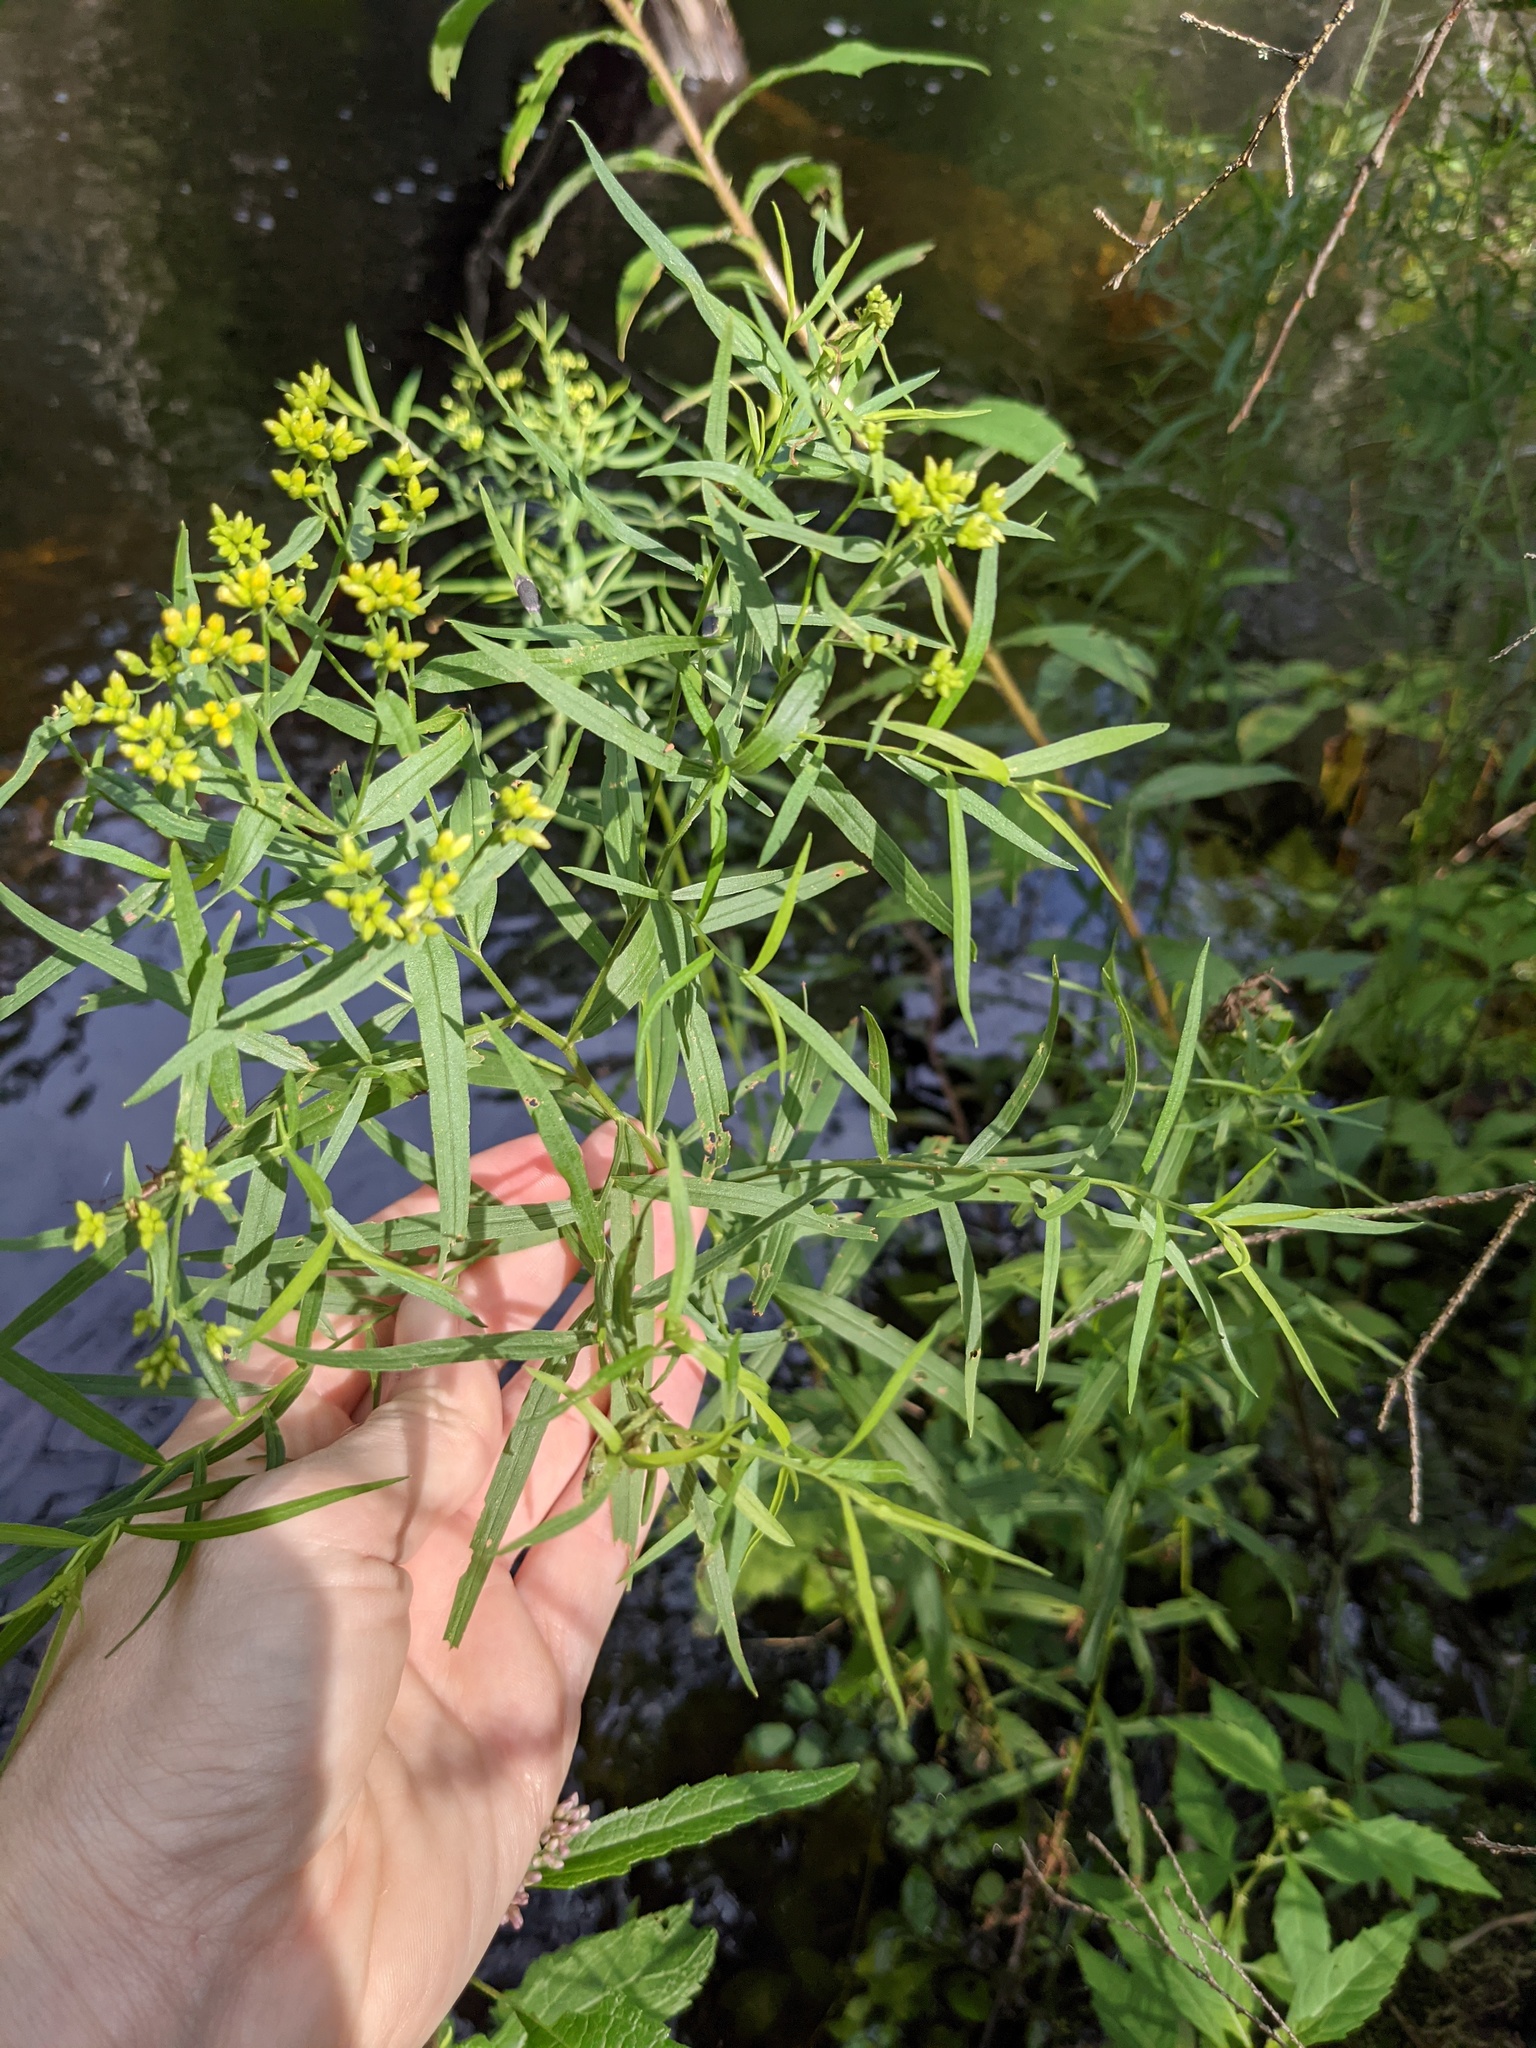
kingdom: Plantae
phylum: Tracheophyta
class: Magnoliopsida
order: Asterales
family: Asteraceae
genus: Euthamia
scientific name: Euthamia graminifolia
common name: Common goldentop
